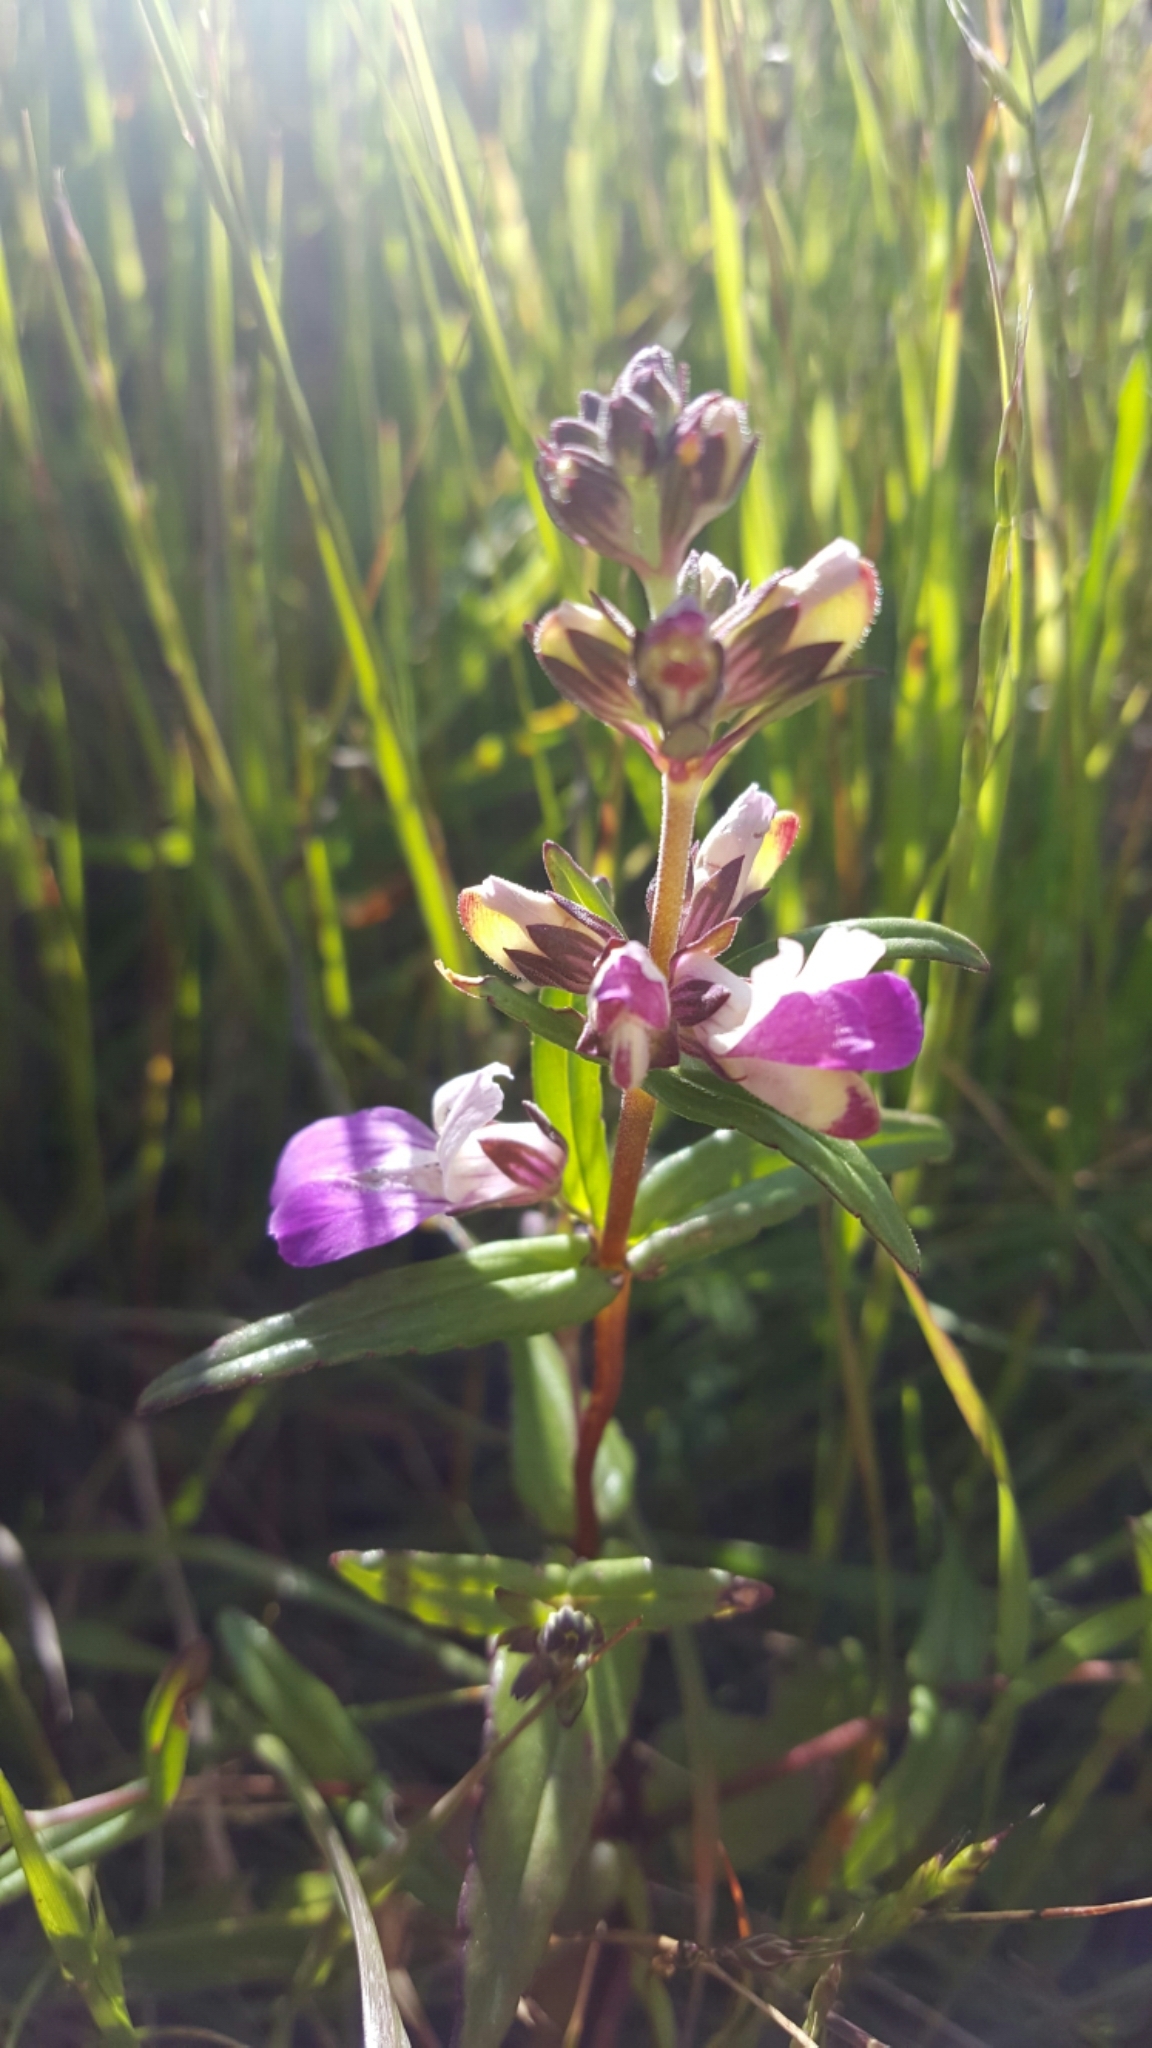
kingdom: Plantae
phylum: Tracheophyta
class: Magnoliopsida
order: Lamiales
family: Plantaginaceae
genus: Collinsia
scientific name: Collinsia heterophylla
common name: Chinese-houses
